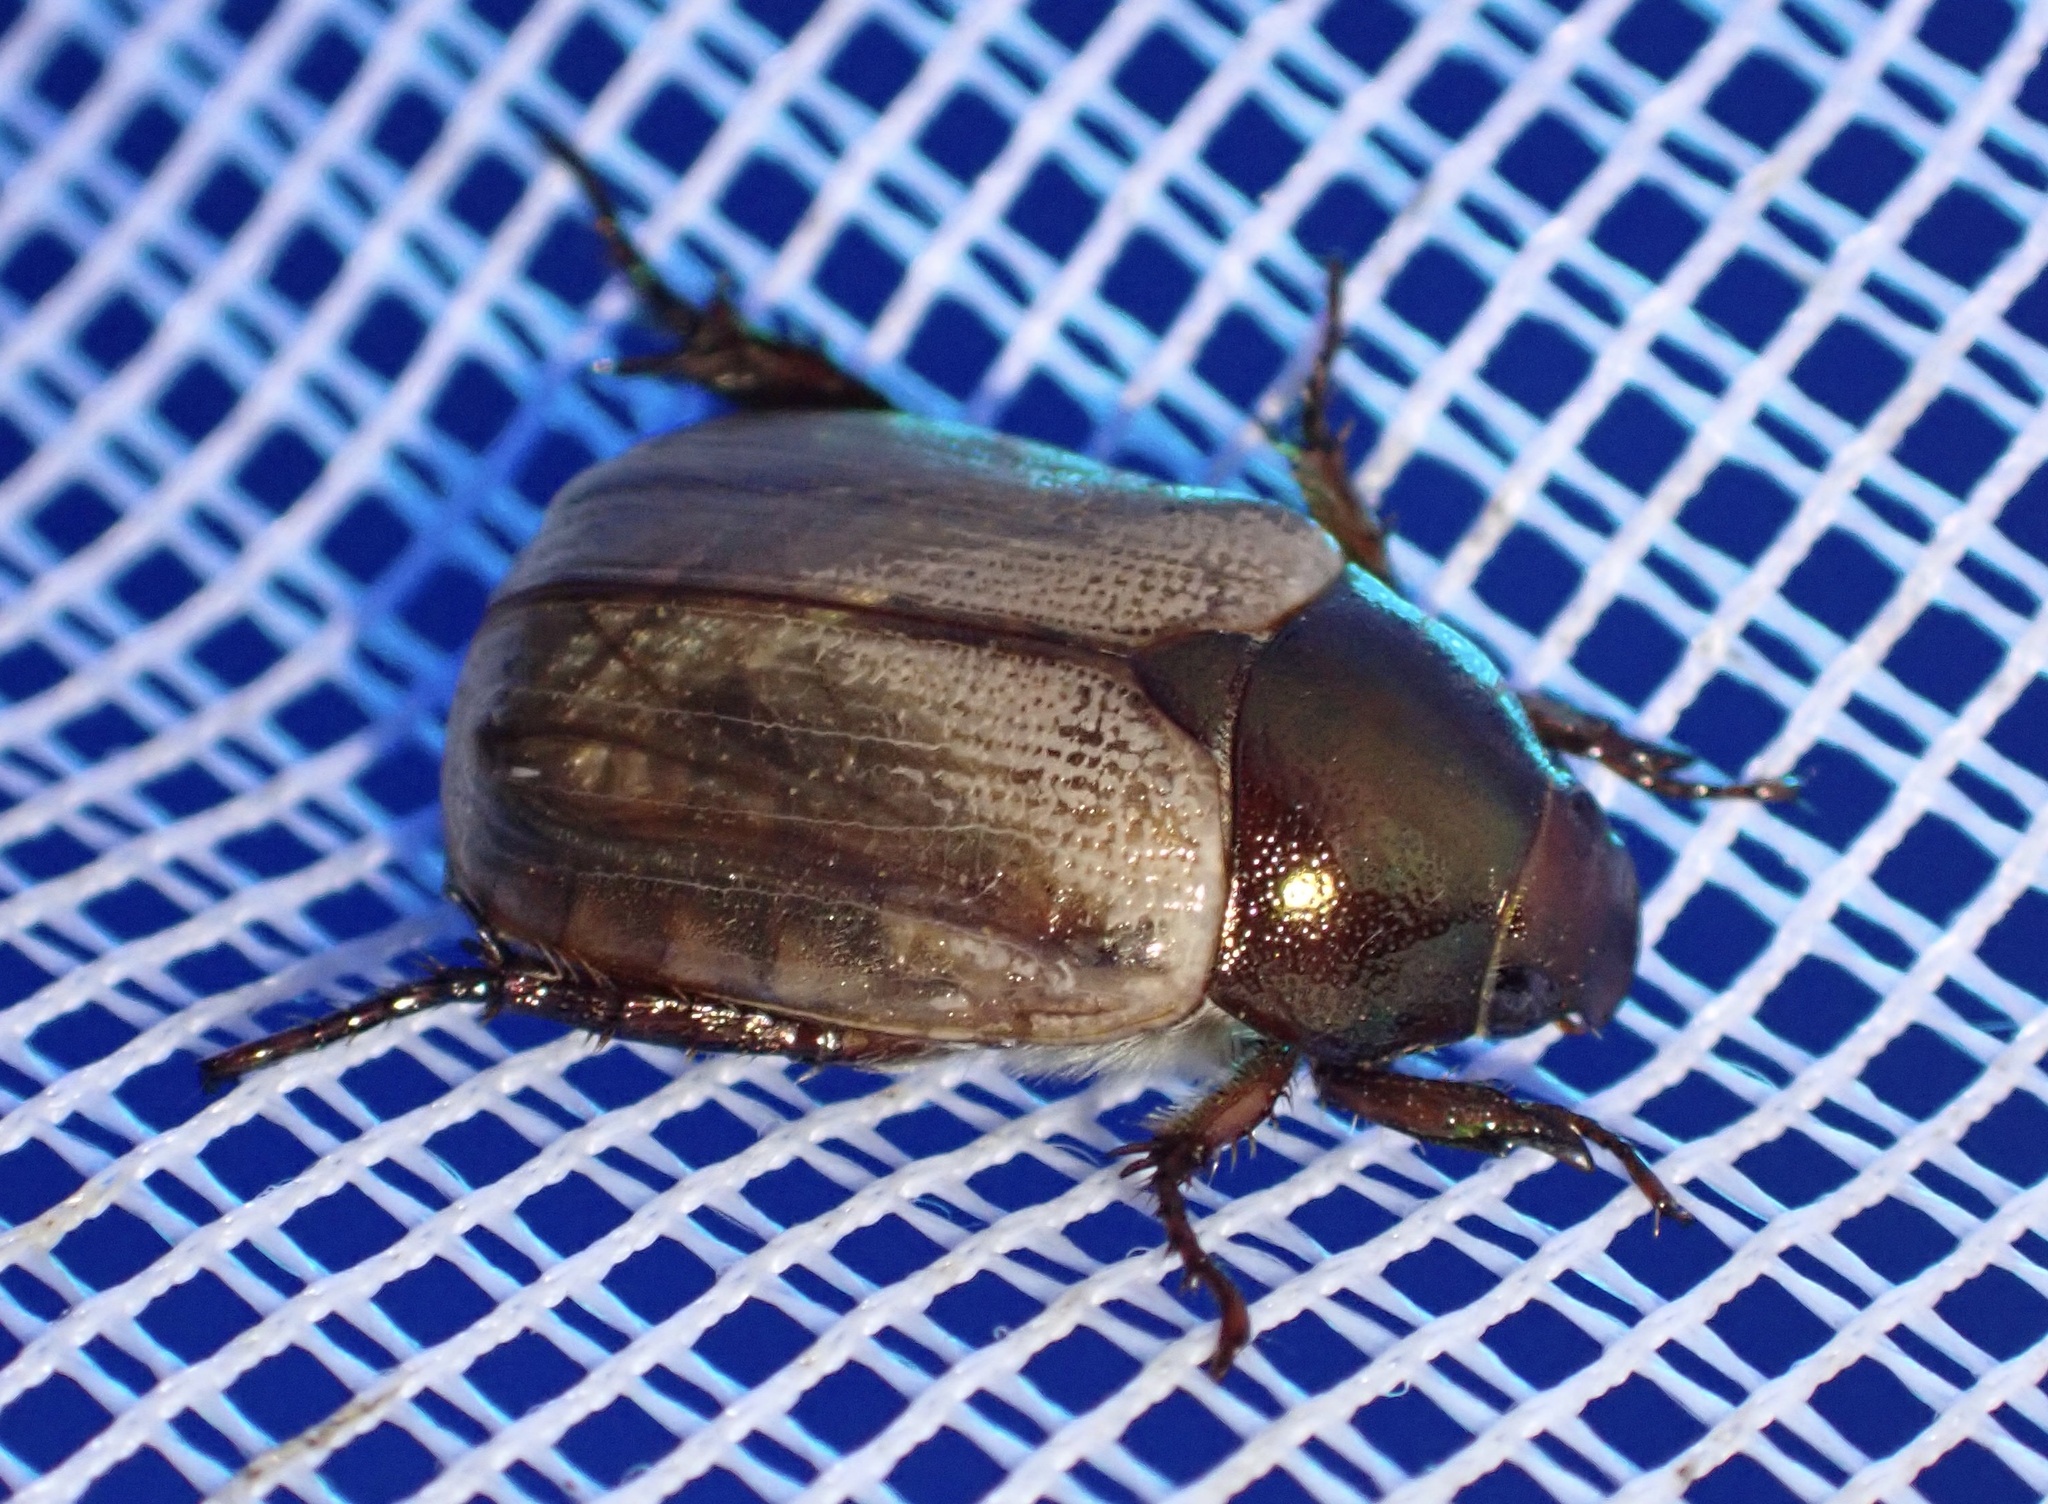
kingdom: Animalia
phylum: Arthropoda
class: Insecta
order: Coleoptera
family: Scarabaeidae
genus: Anomala
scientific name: Anomala brachycaula
